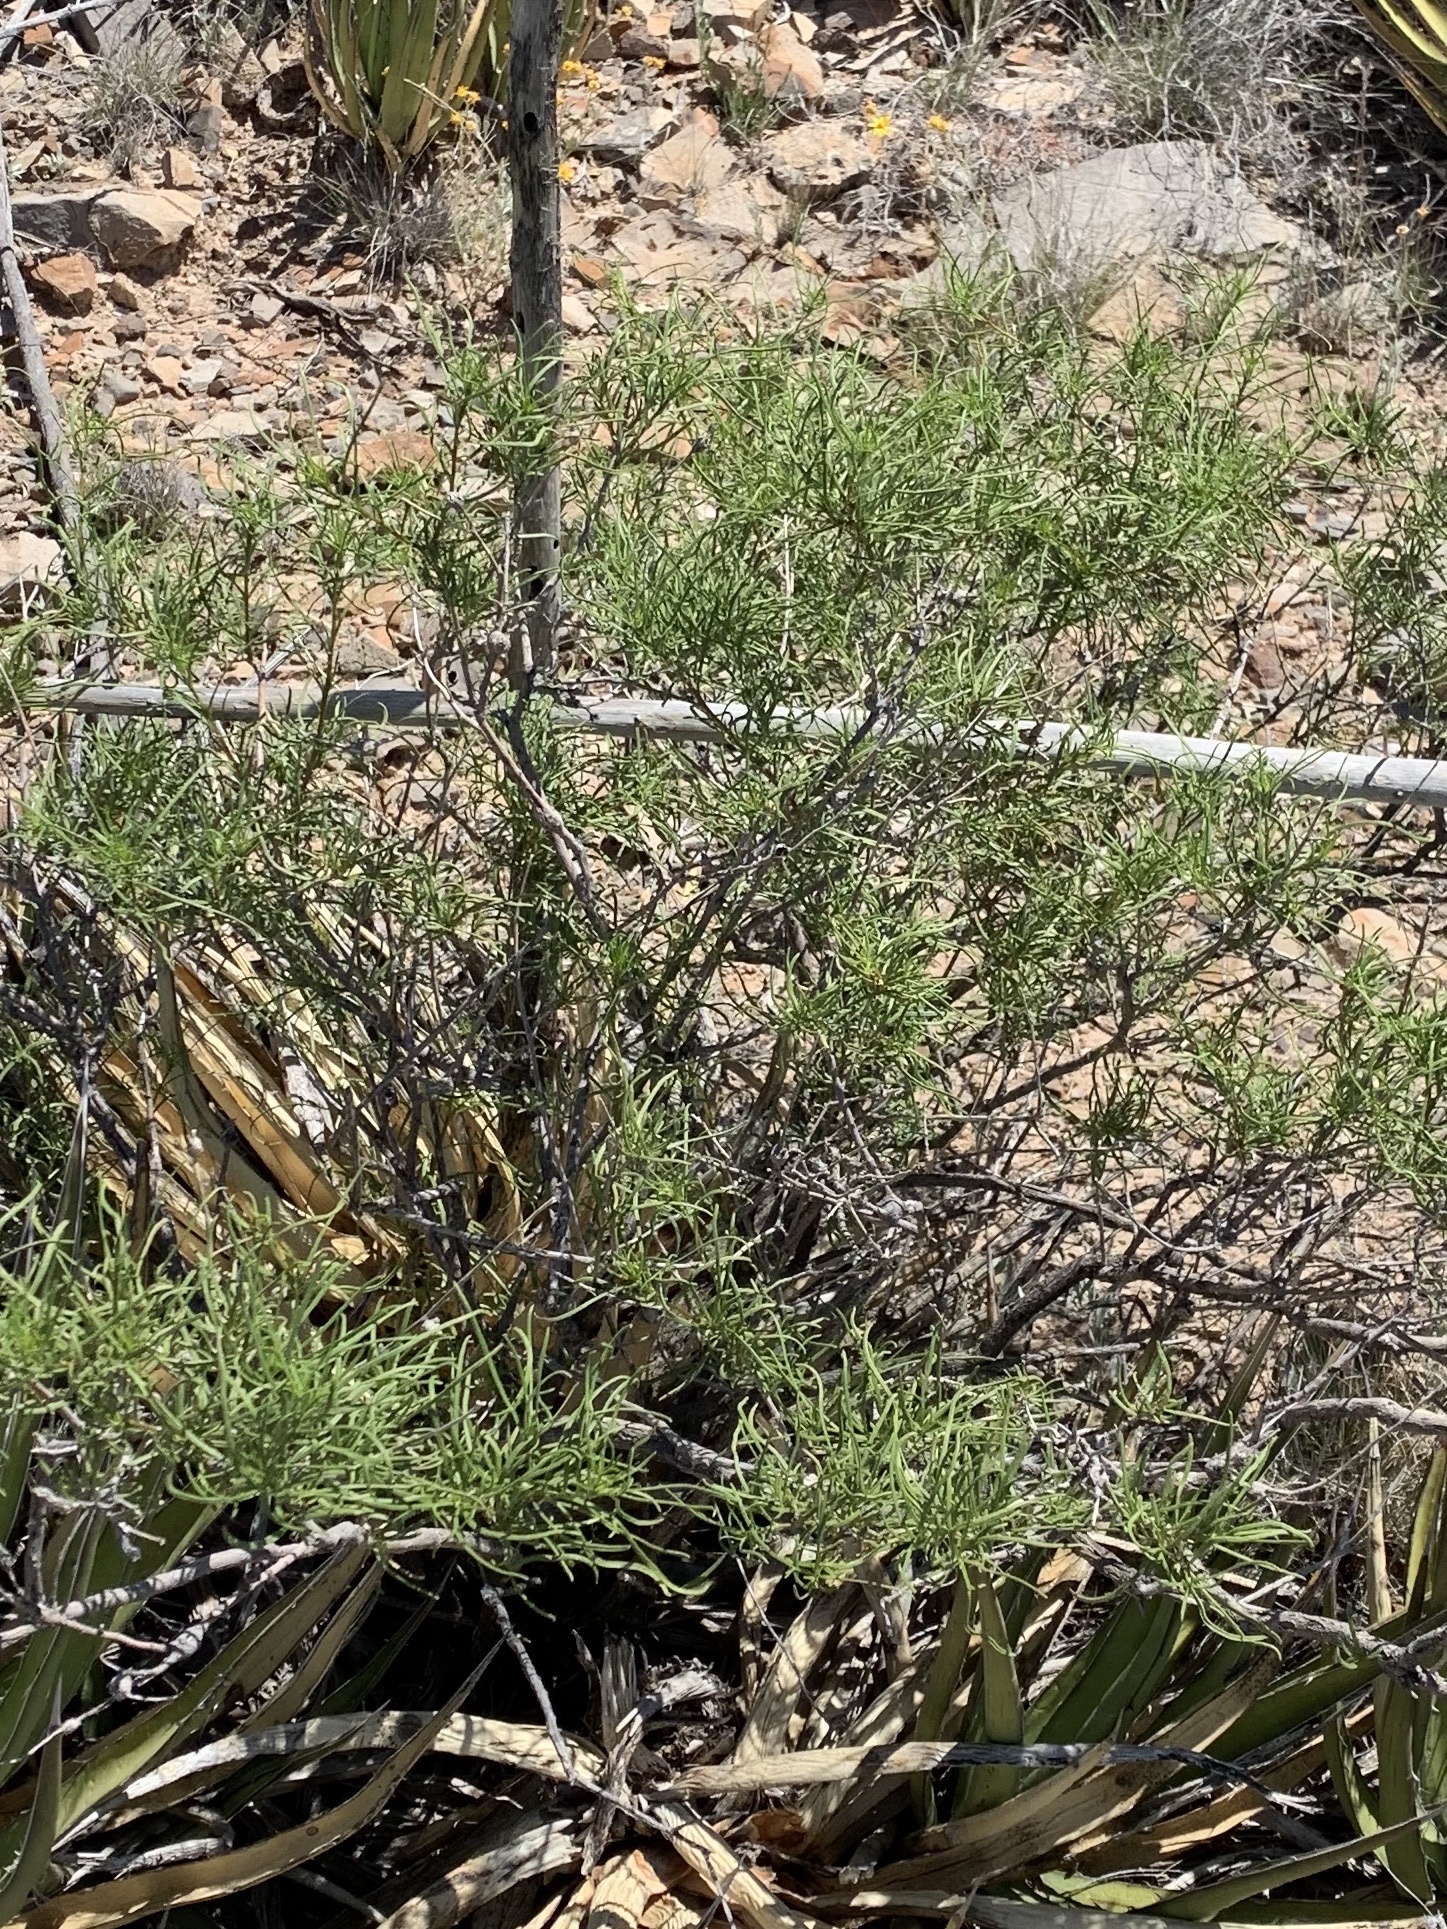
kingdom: Plantae
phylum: Tracheophyta
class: Magnoliopsida
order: Asterales
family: Asteraceae
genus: Sidneya
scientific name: Sidneya tenuifolia
